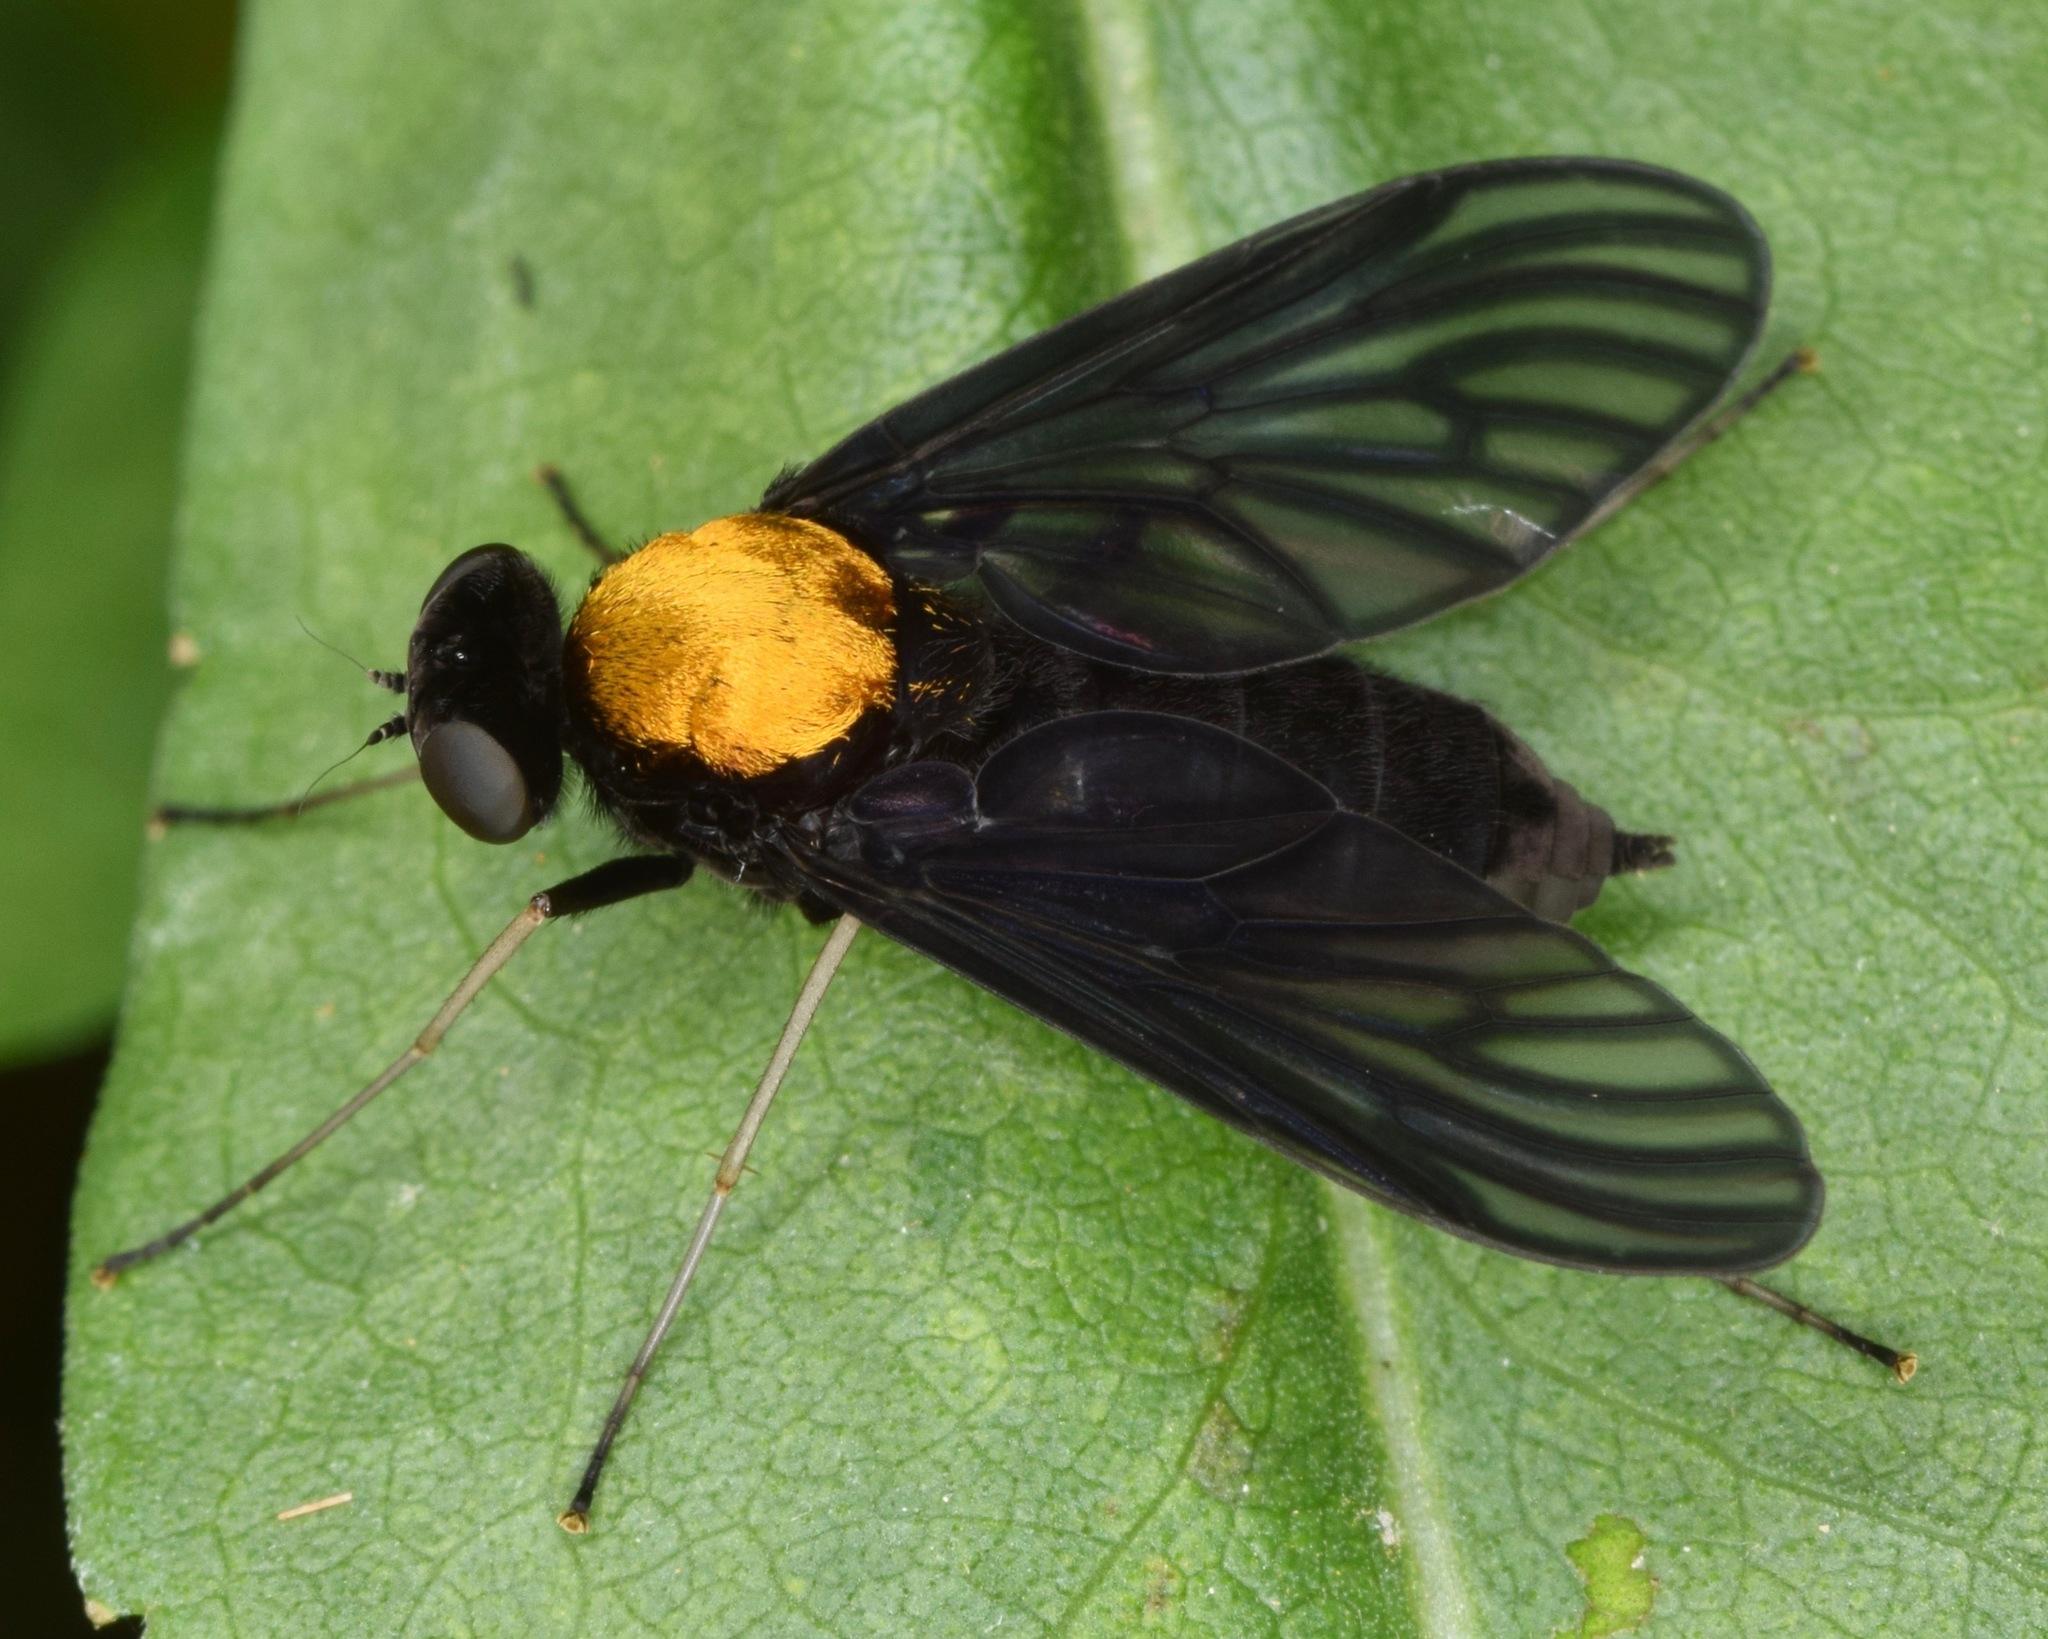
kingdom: Animalia
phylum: Arthropoda
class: Insecta
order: Diptera
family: Rhagionidae
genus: Chrysopilus
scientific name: Chrysopilus davisi
